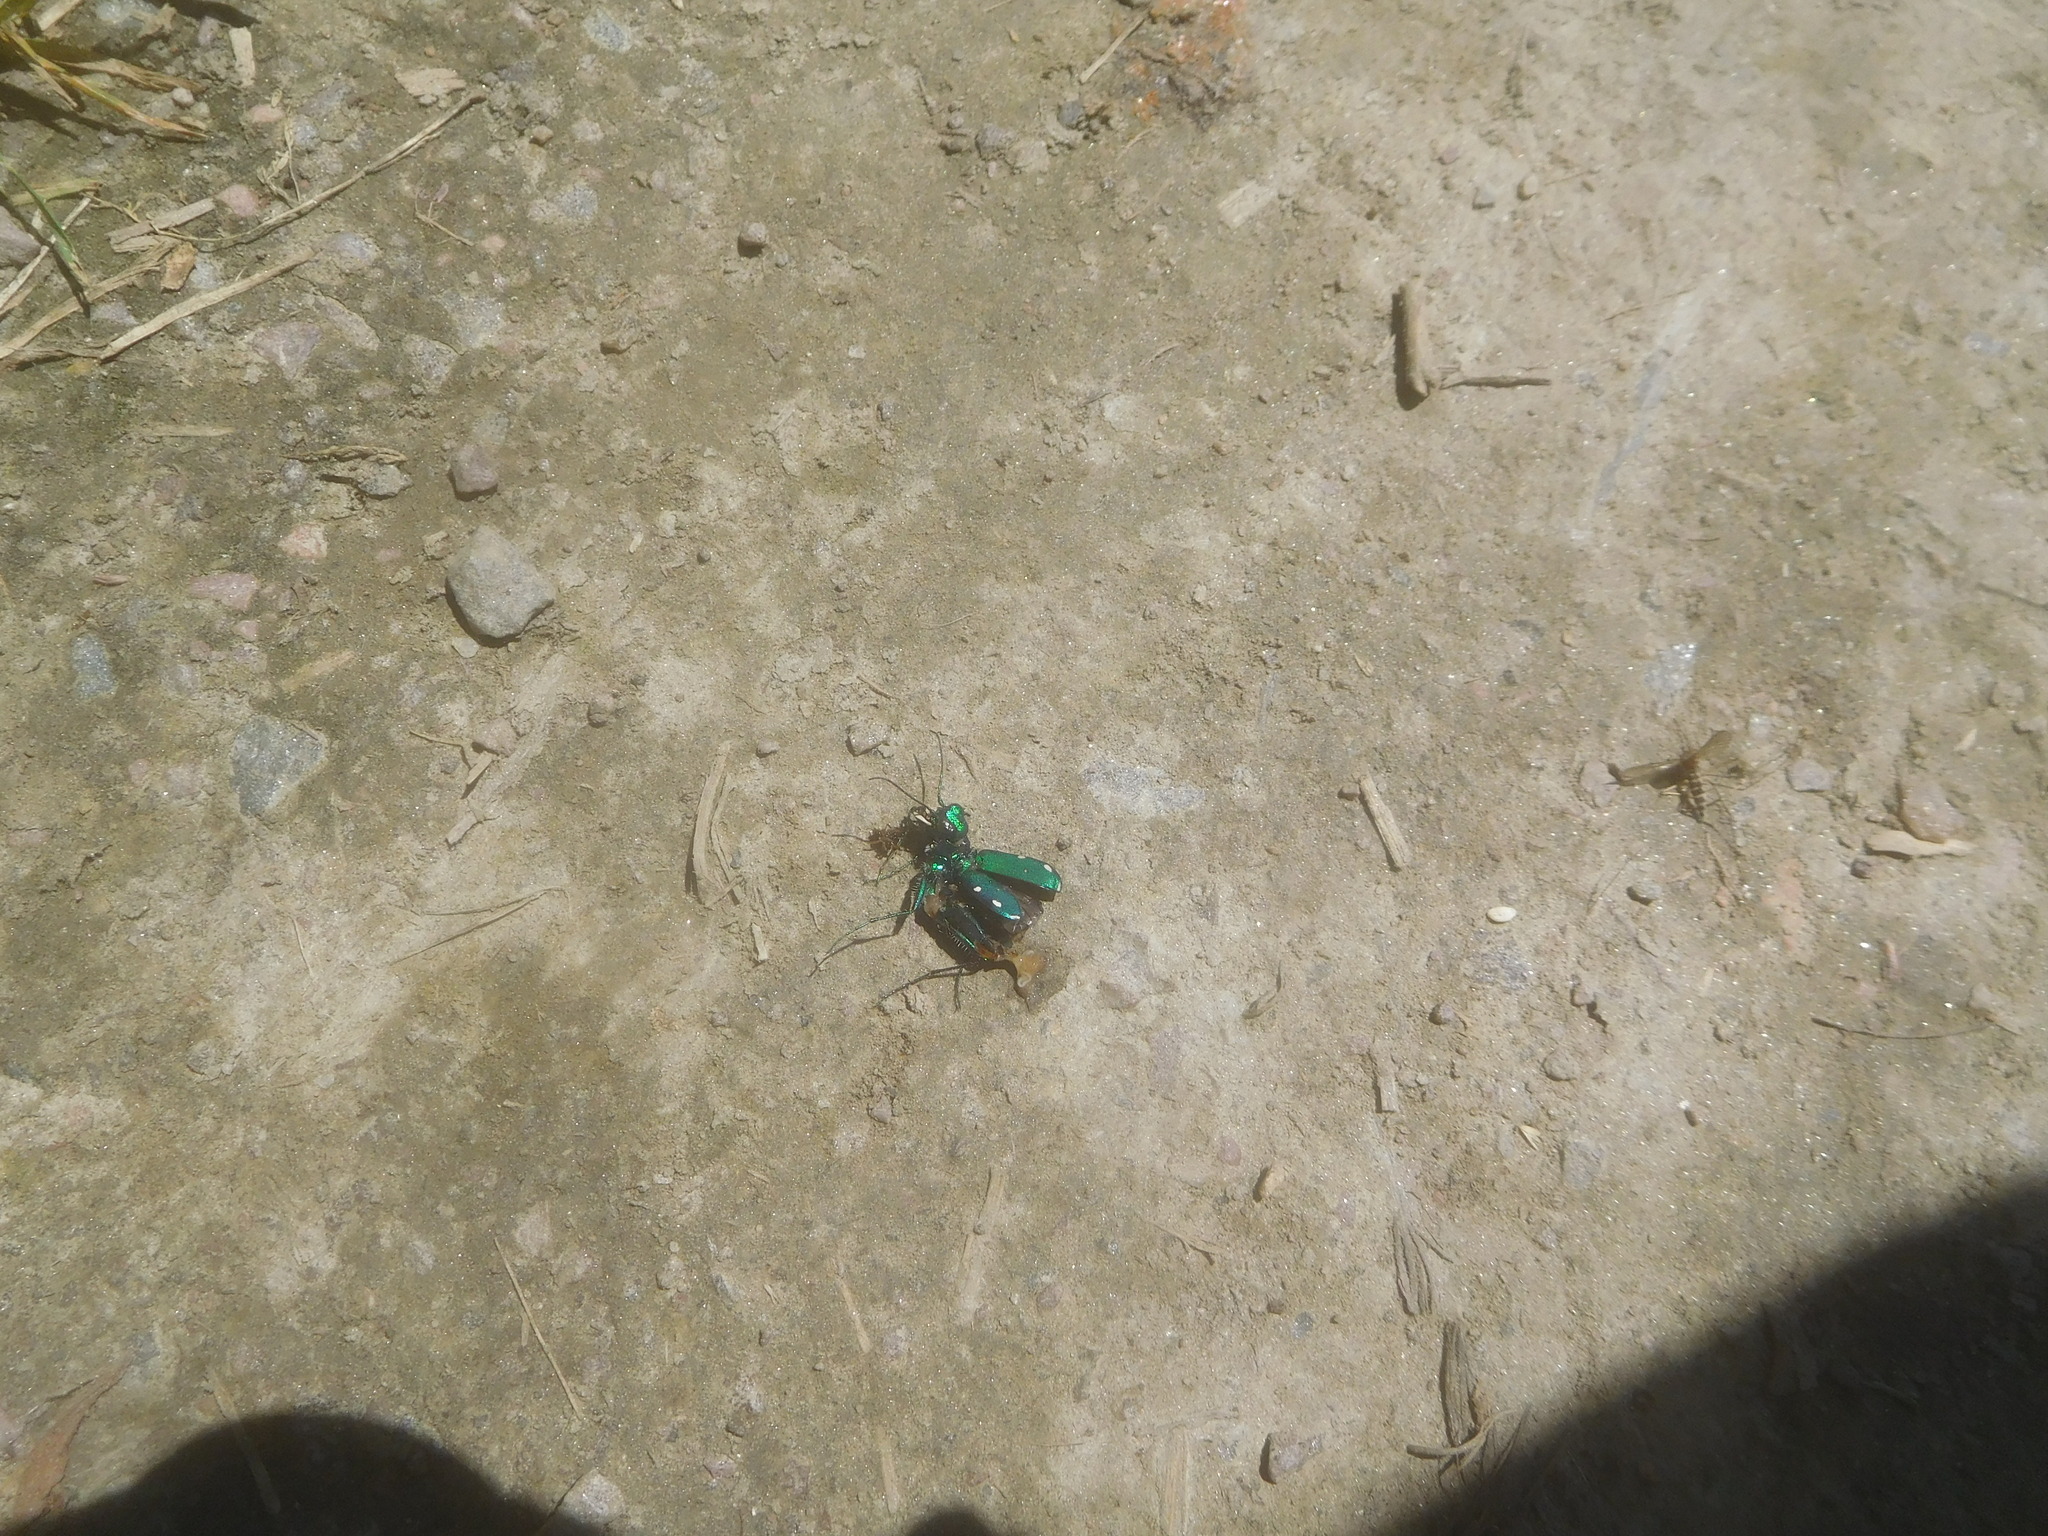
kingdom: Animalia
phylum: Arthropoda
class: Insecta
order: Coleoptera
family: Carabidae
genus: Cicindela
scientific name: Cicindela sexguttata
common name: Six-spotted tiger beetle
